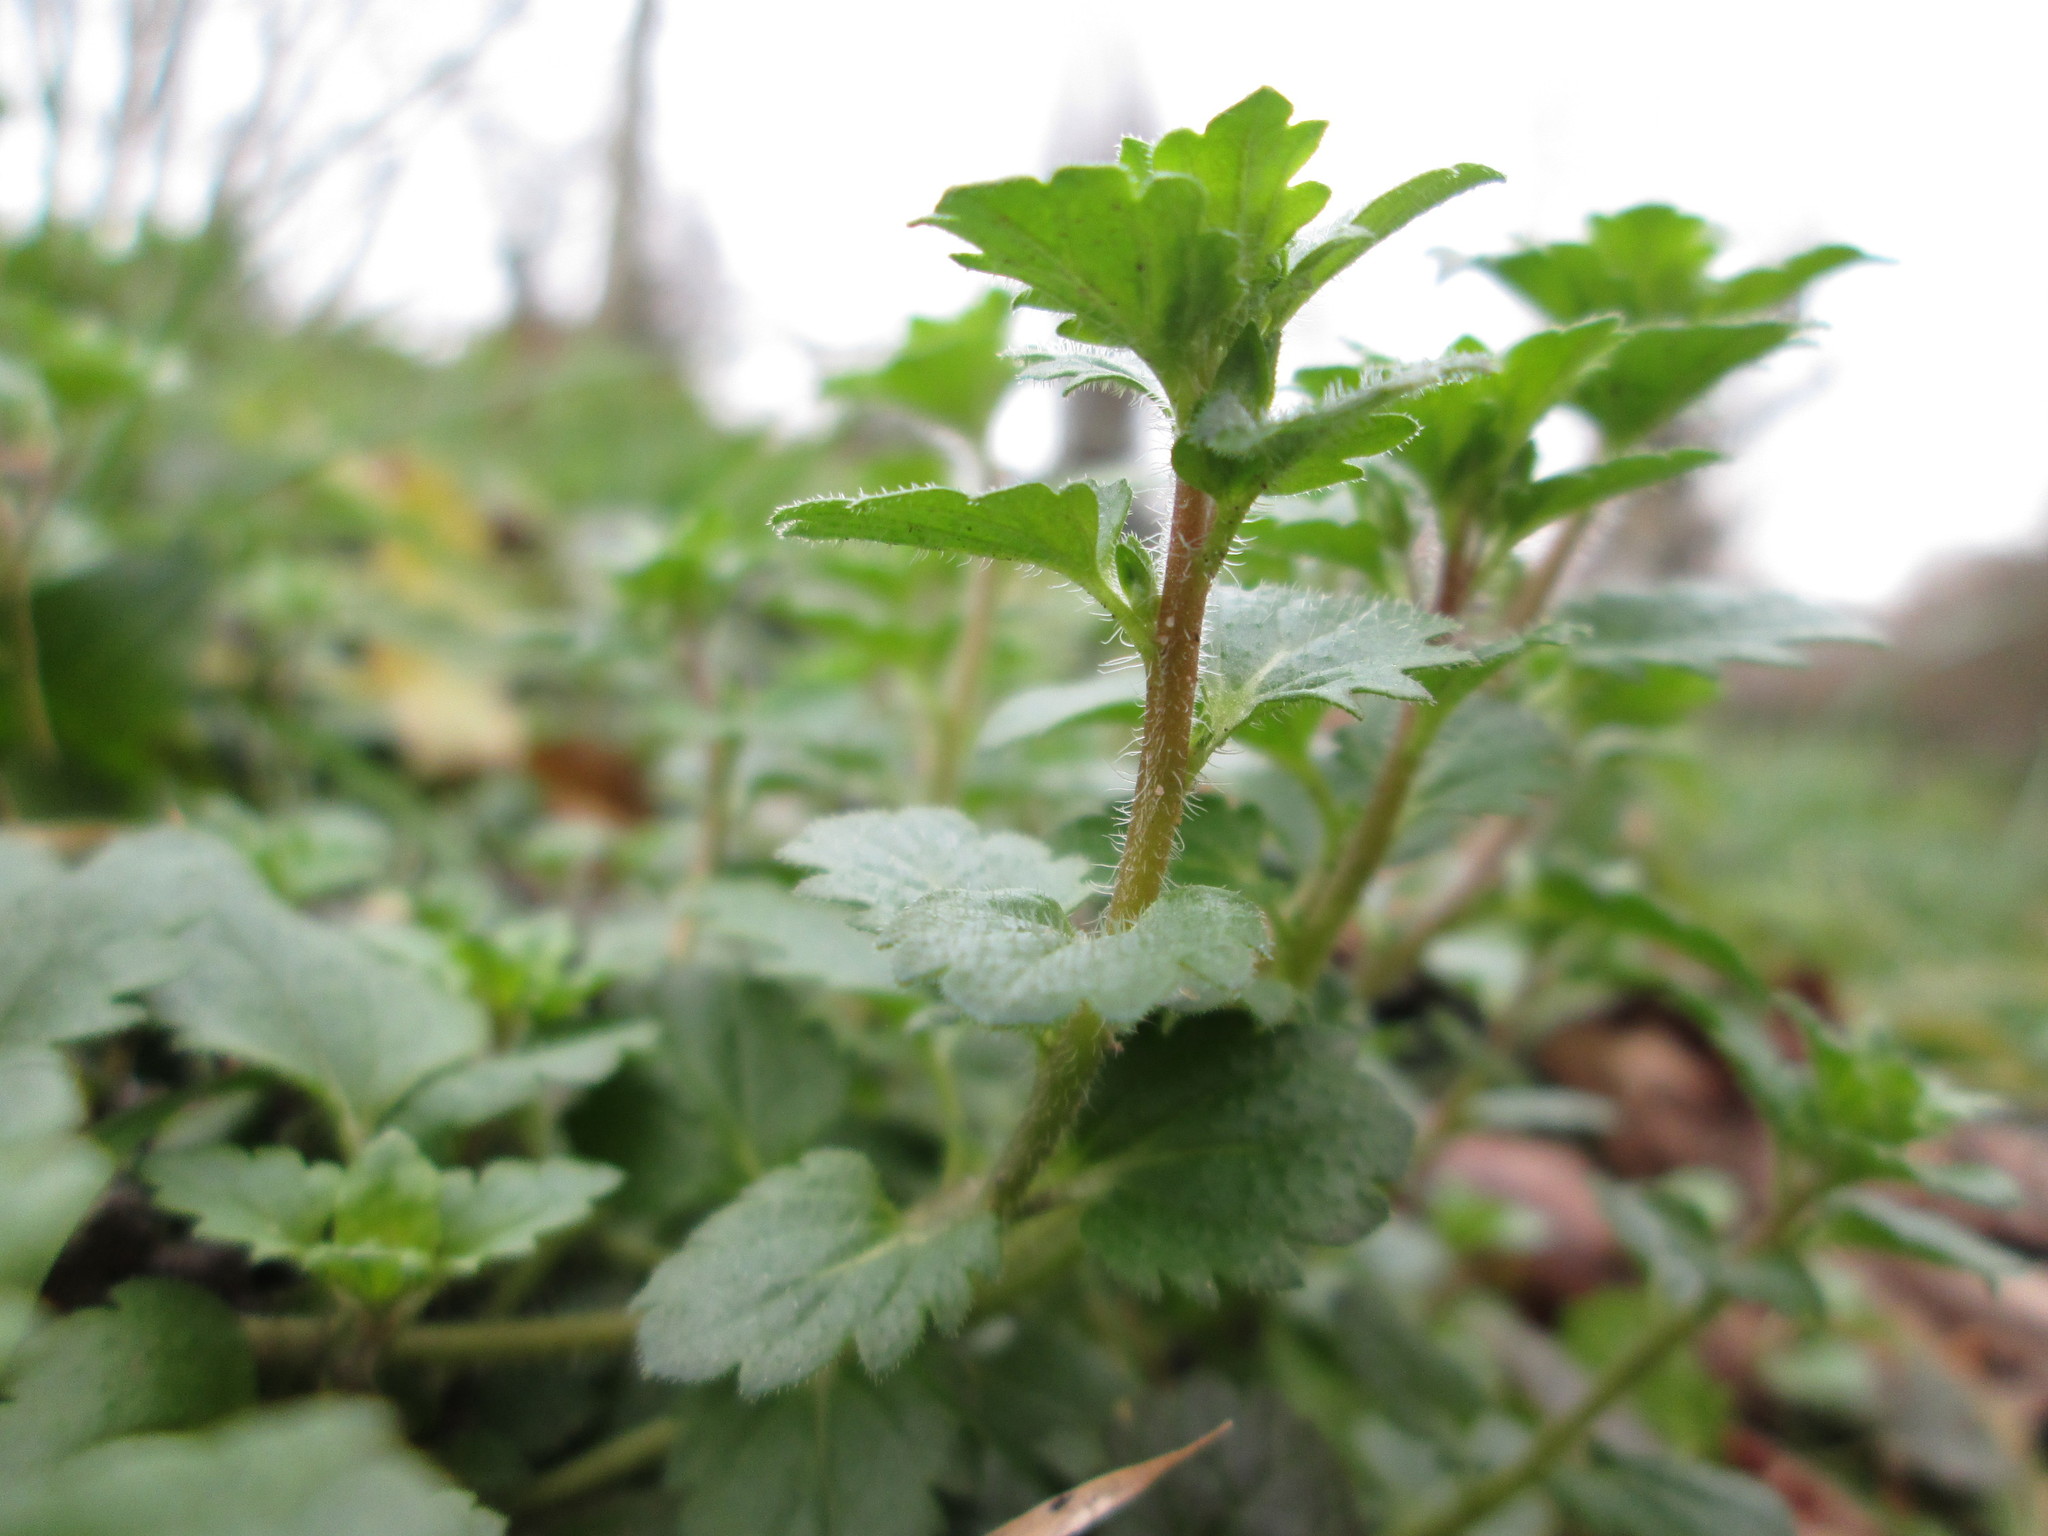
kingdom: Plantae
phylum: Tracheophyta
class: Magnoliopsida
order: Lamiales
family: Plantaginaceae
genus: Veronica
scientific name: Veronica persica
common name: Common field-speedwell
